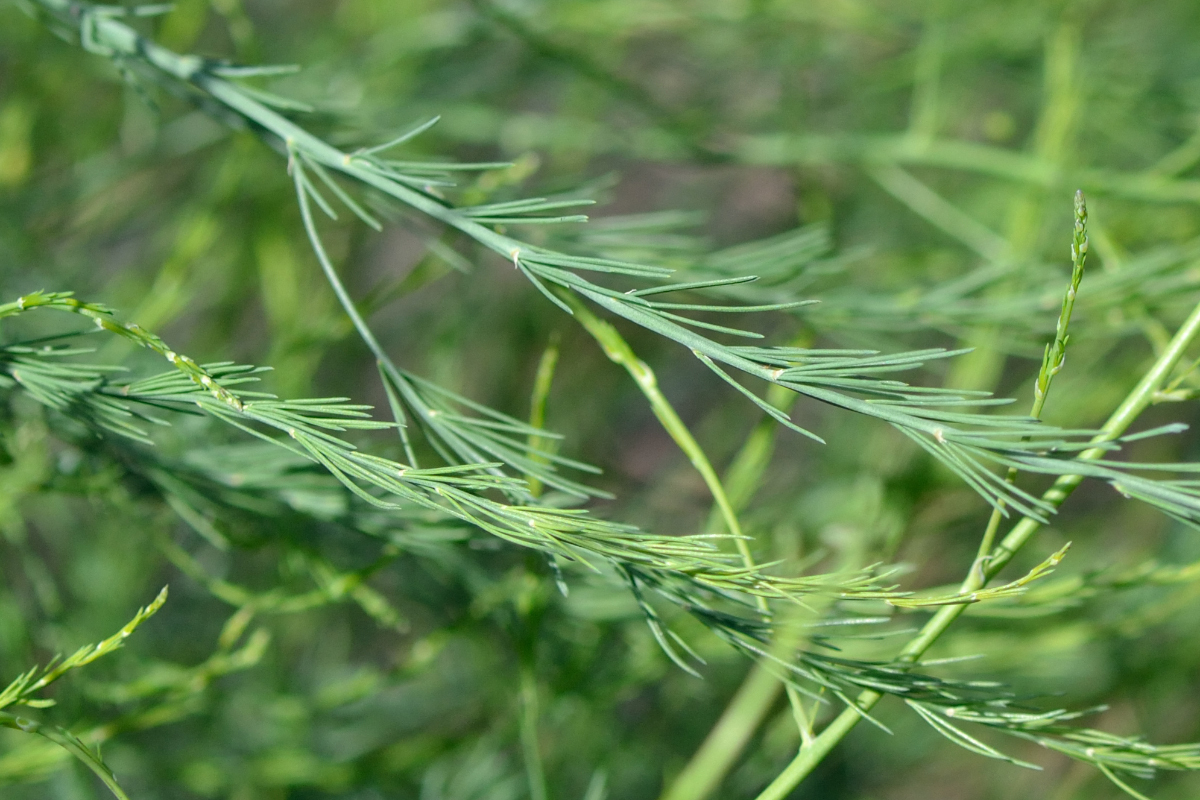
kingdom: Plantae
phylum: Tracheophyta
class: Liliopsida
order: Asparagales
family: Asparagaceae
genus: Asparagus
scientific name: Asparagus officinalis
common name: Garden asparagus
